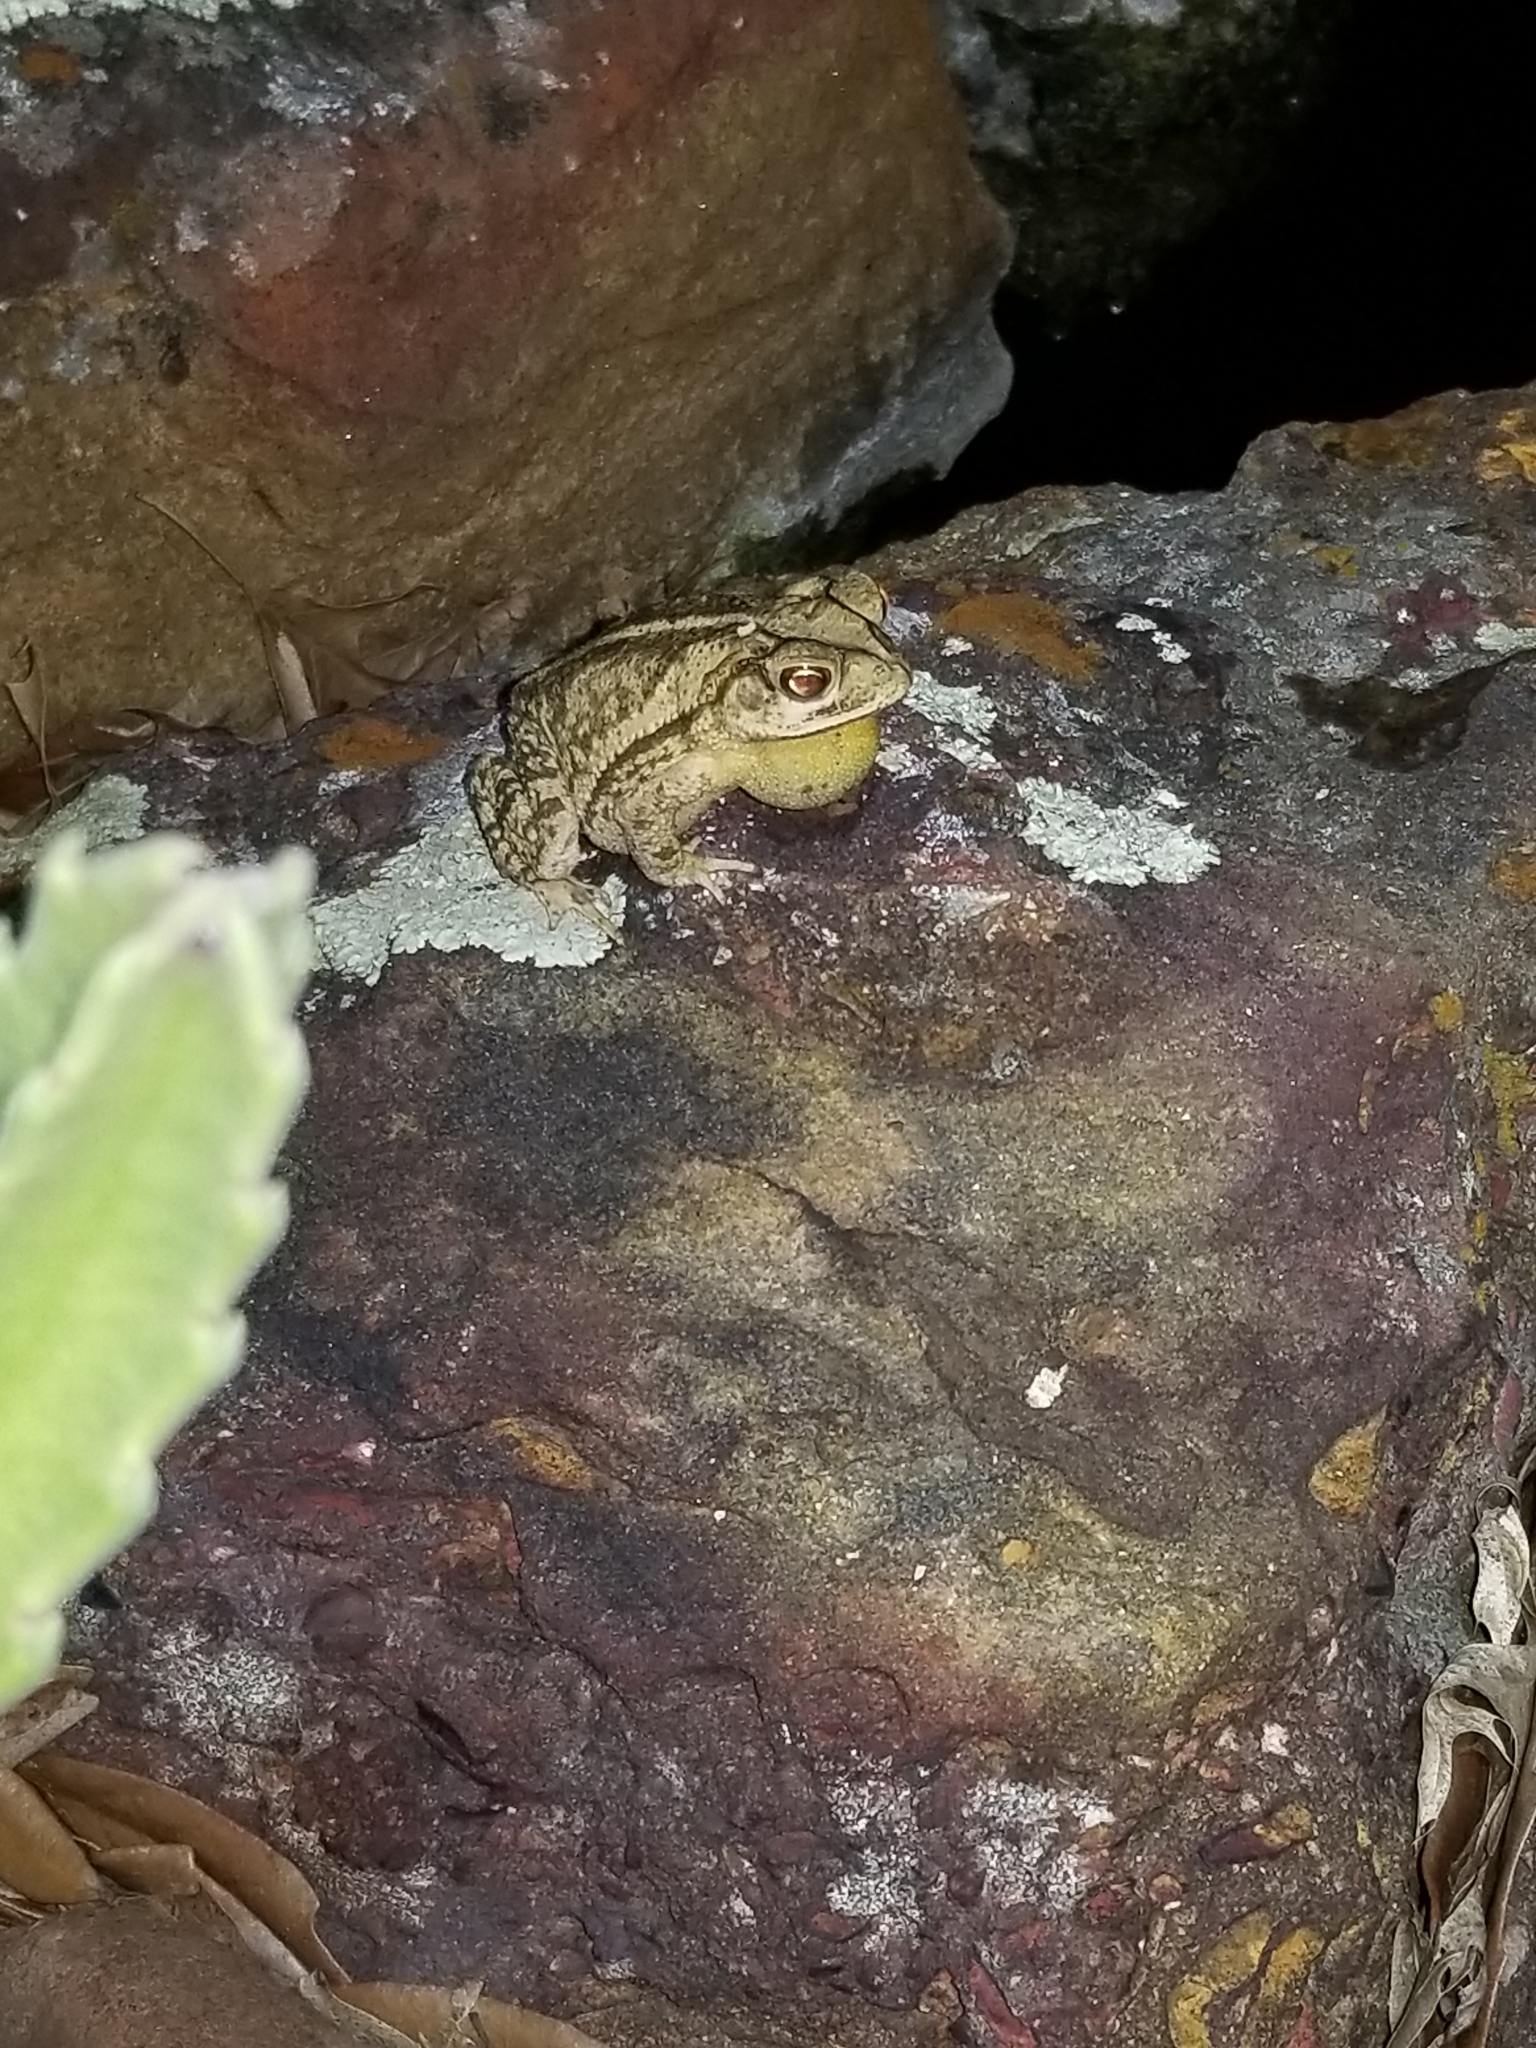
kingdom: Animalia
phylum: Chordata
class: Amphibia
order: Anura
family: Bufonidae
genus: Incilius
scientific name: Incilius nebulifer
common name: Gulf coast toad
